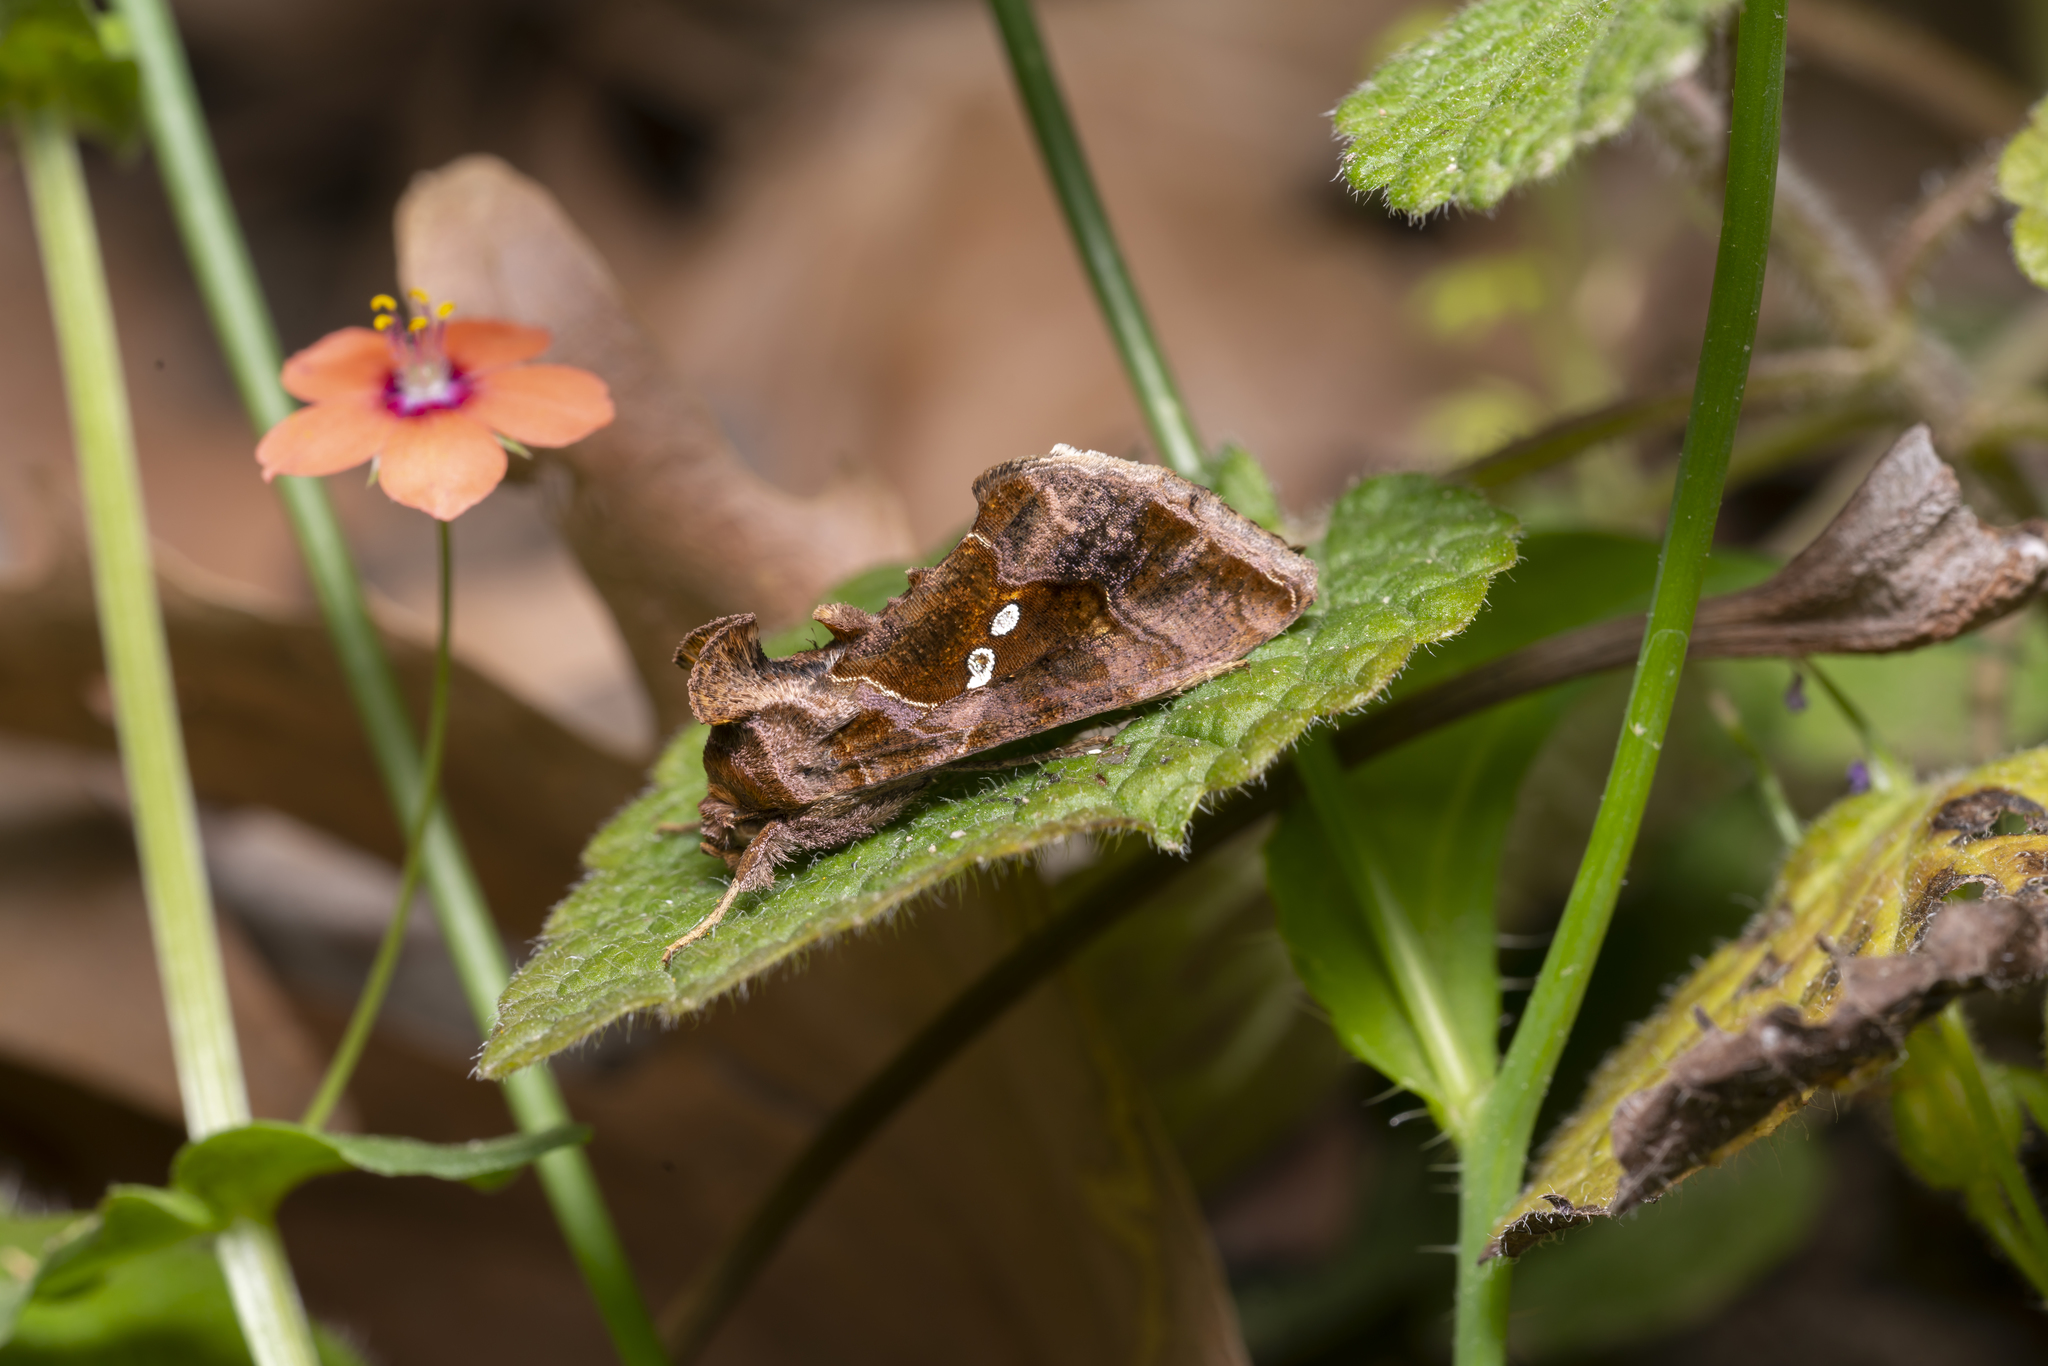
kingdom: Animalia
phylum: Arthropoda
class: Insecta
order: Lepidoptera
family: Noctuidae
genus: Chrysodeixis
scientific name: Chrysodeixis chalcites
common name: Golden twin-spot
